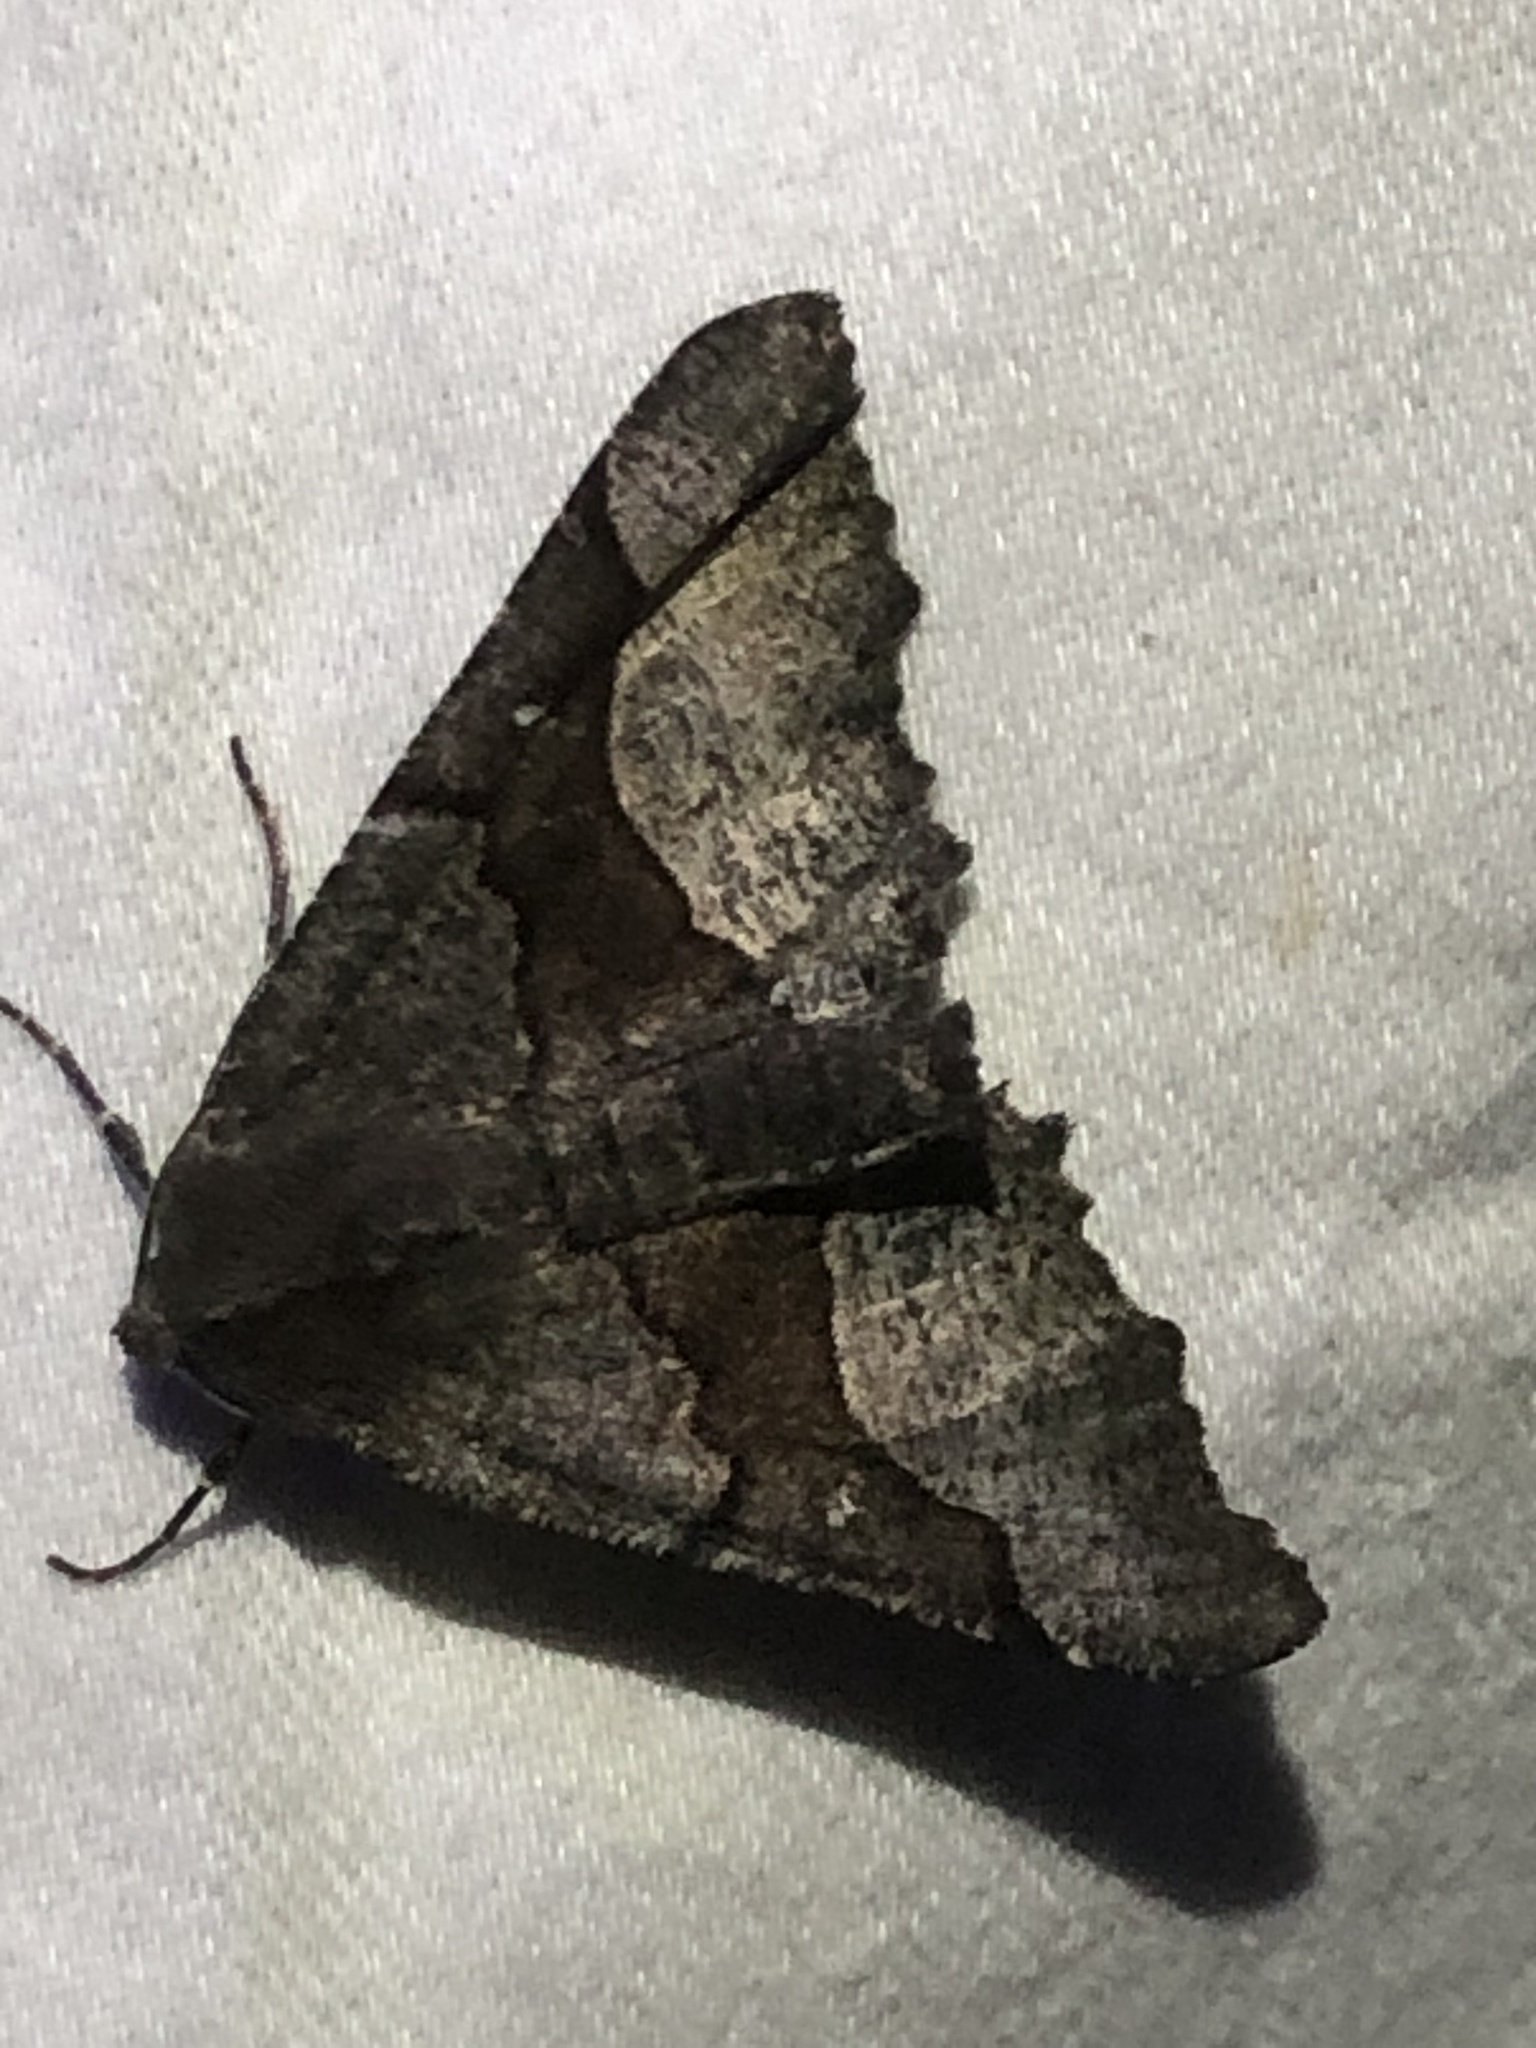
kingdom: Animalia
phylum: Arthropoda
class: Insecta
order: Lepidoptera
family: Geometridae
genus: Pero
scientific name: Pero behrensaria
